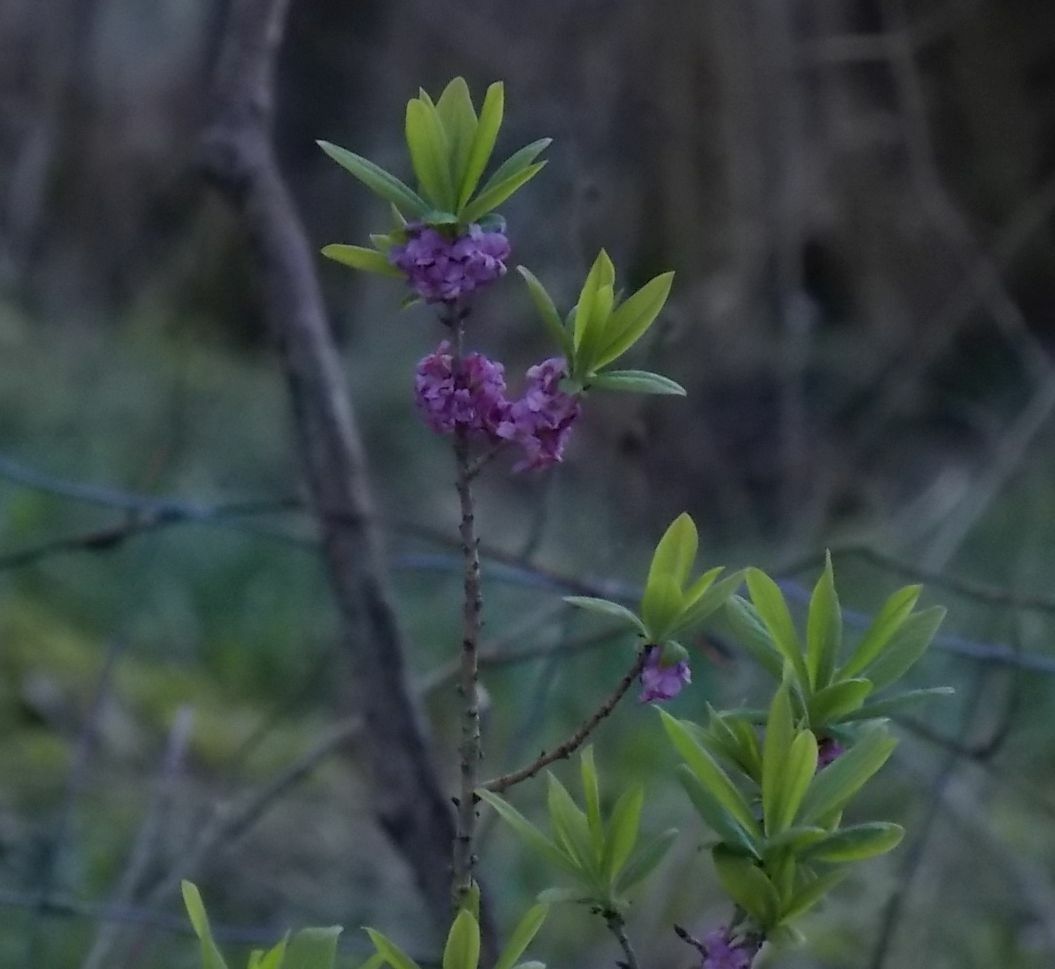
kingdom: Plantae
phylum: Tracheophyta
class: Magnoliopsida
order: Malvales
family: Thymelaeaceae
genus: Daphne
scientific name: Daphne mezereum
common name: Mezereon
